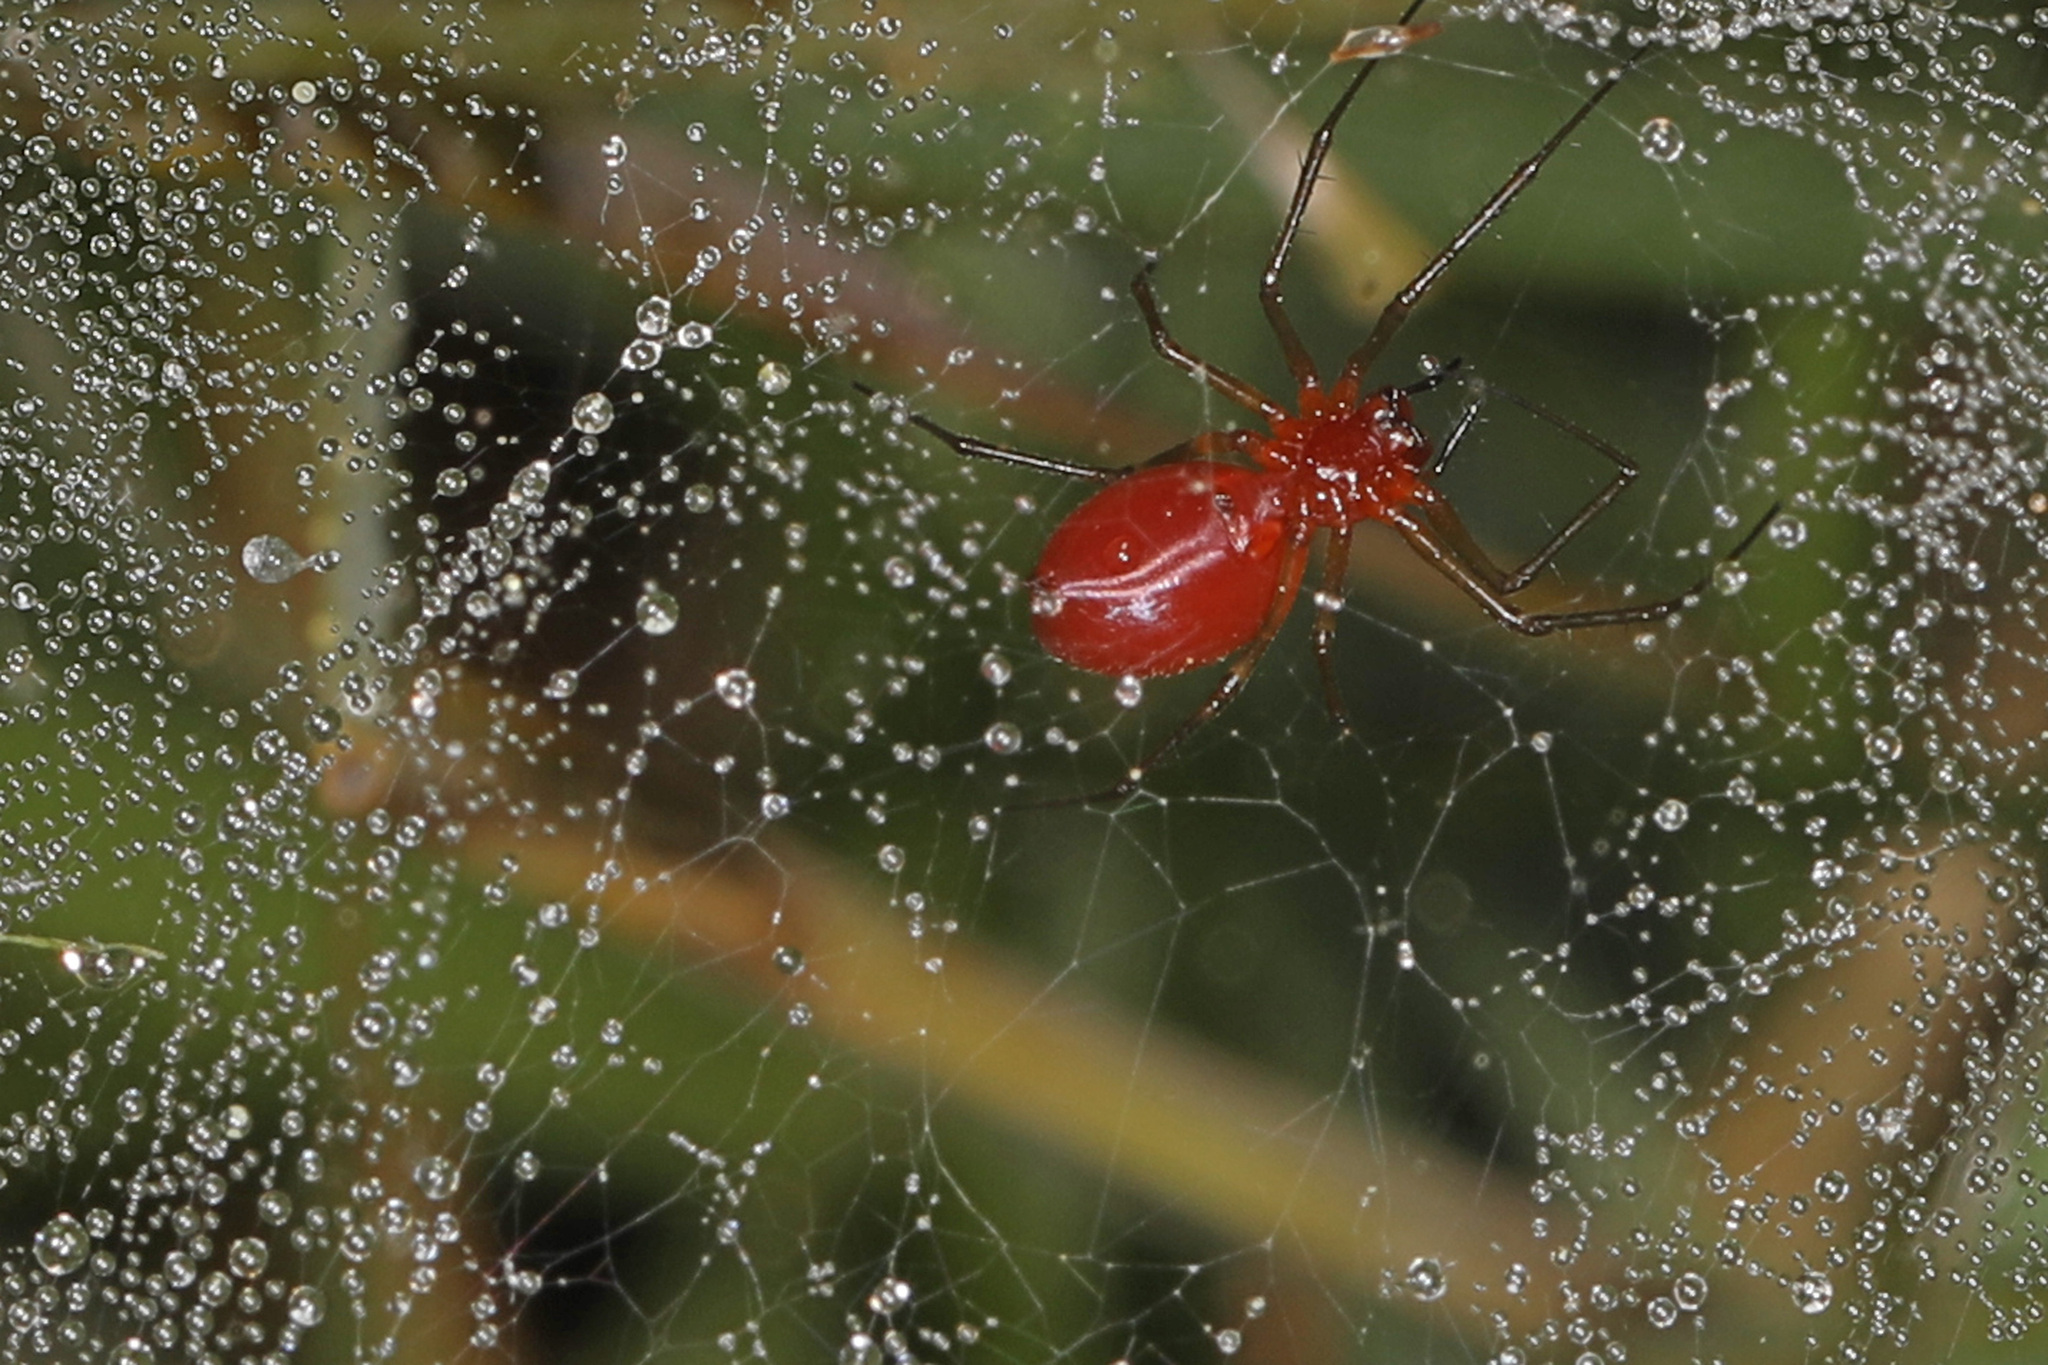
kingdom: Animalia
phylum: Arthropoda
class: Arachnida
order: Araneae
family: Linyphiidae
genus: Florinda
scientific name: Florinda coccinea
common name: Black-tailed red sheetweaver
